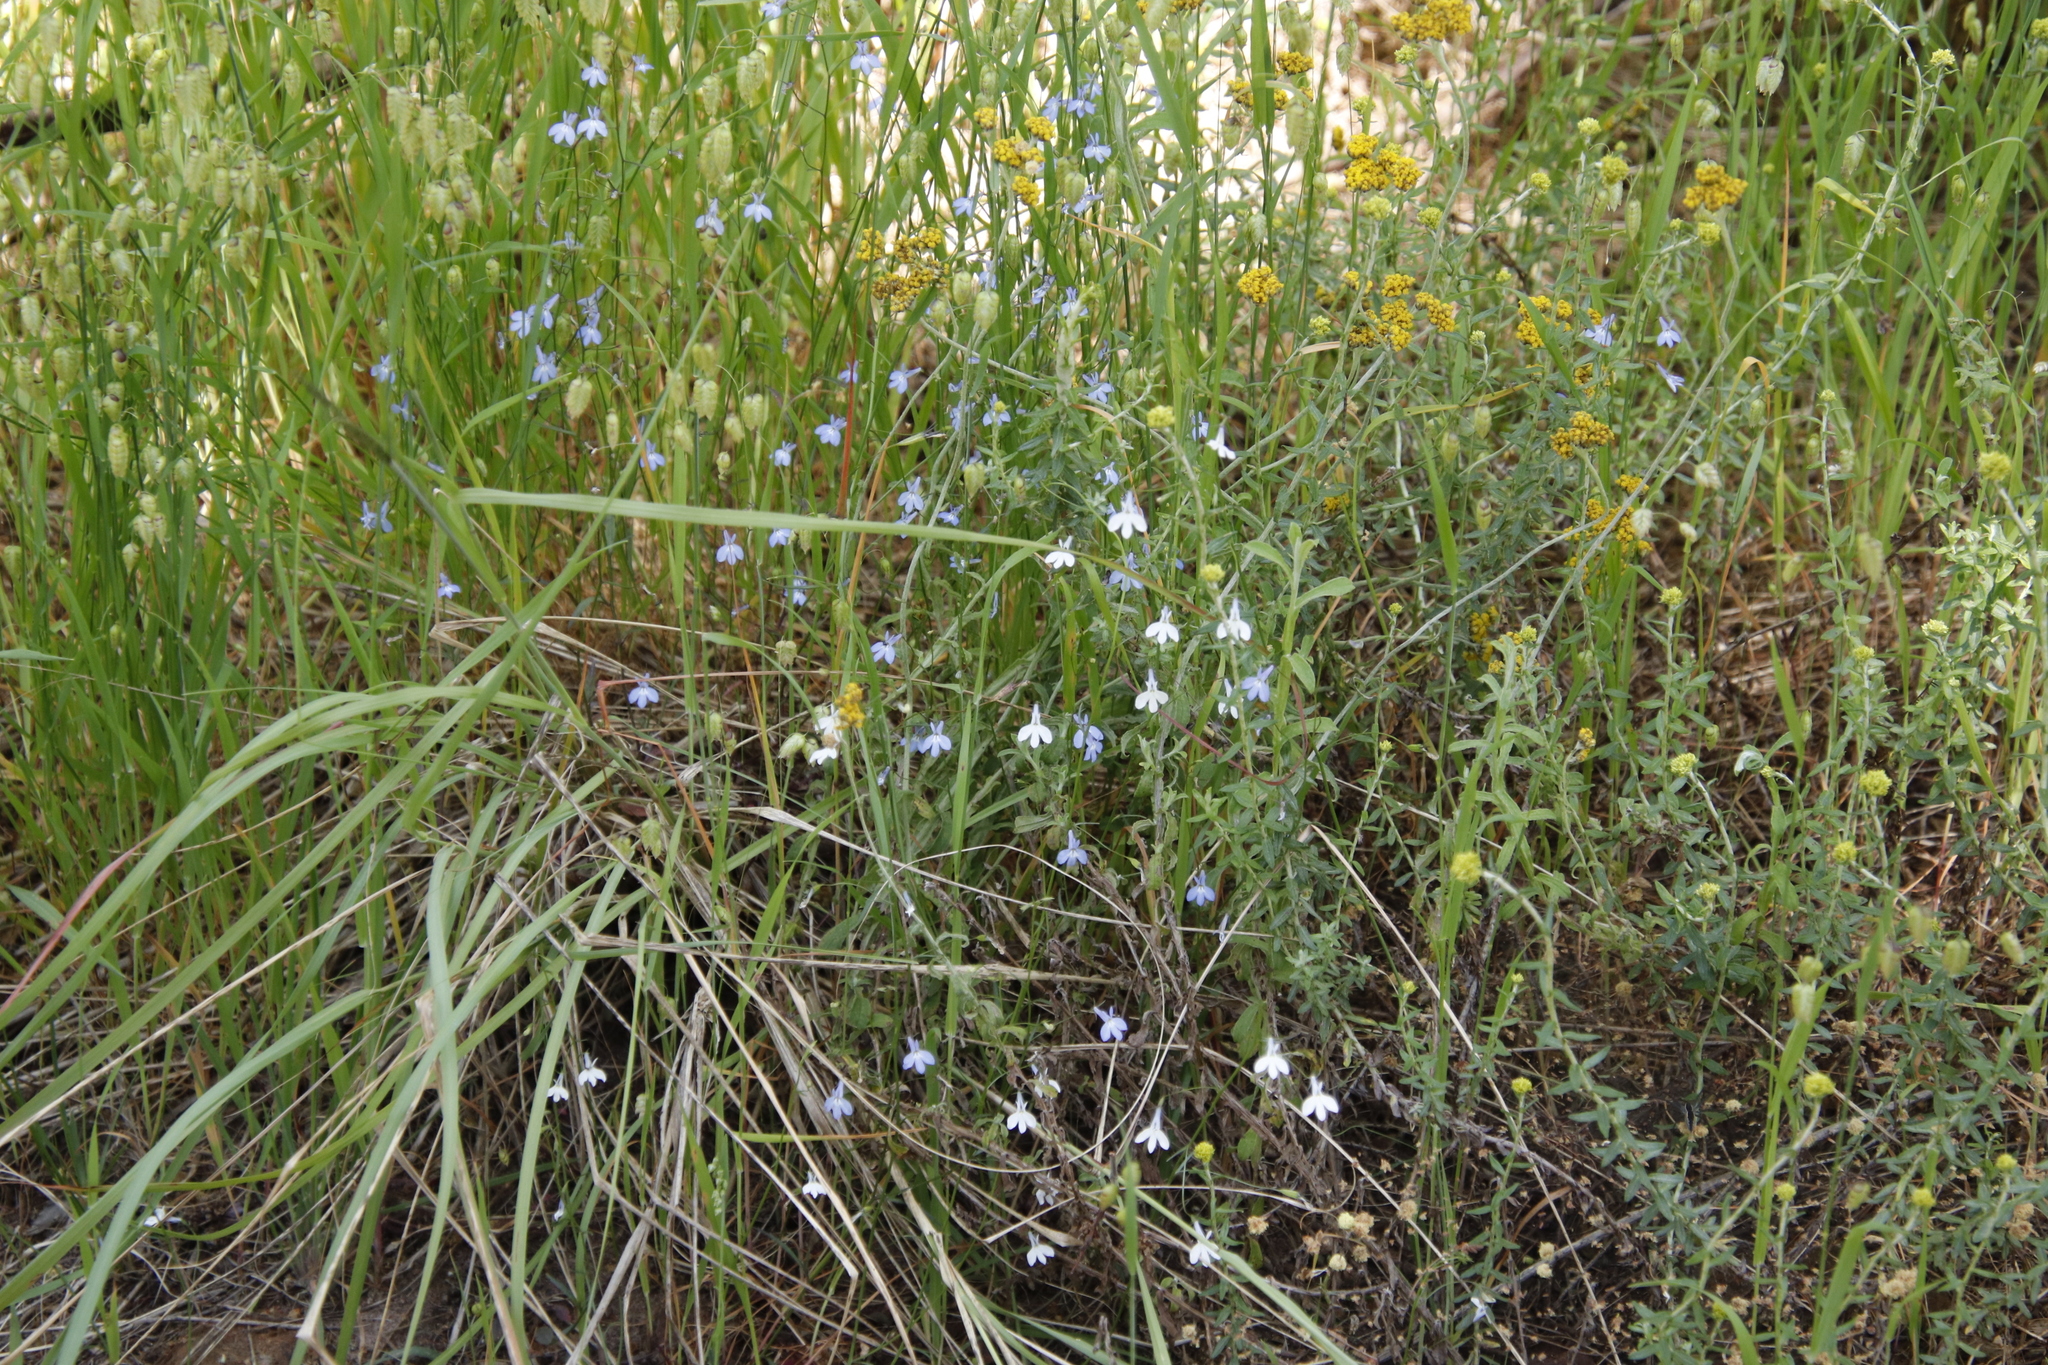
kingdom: Plantae
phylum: Tracheophyta
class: Magnoliopsida
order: Asterales
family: Campanulaceae
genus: Lobelia
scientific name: Lobelia erinus
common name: Edging lobelia
